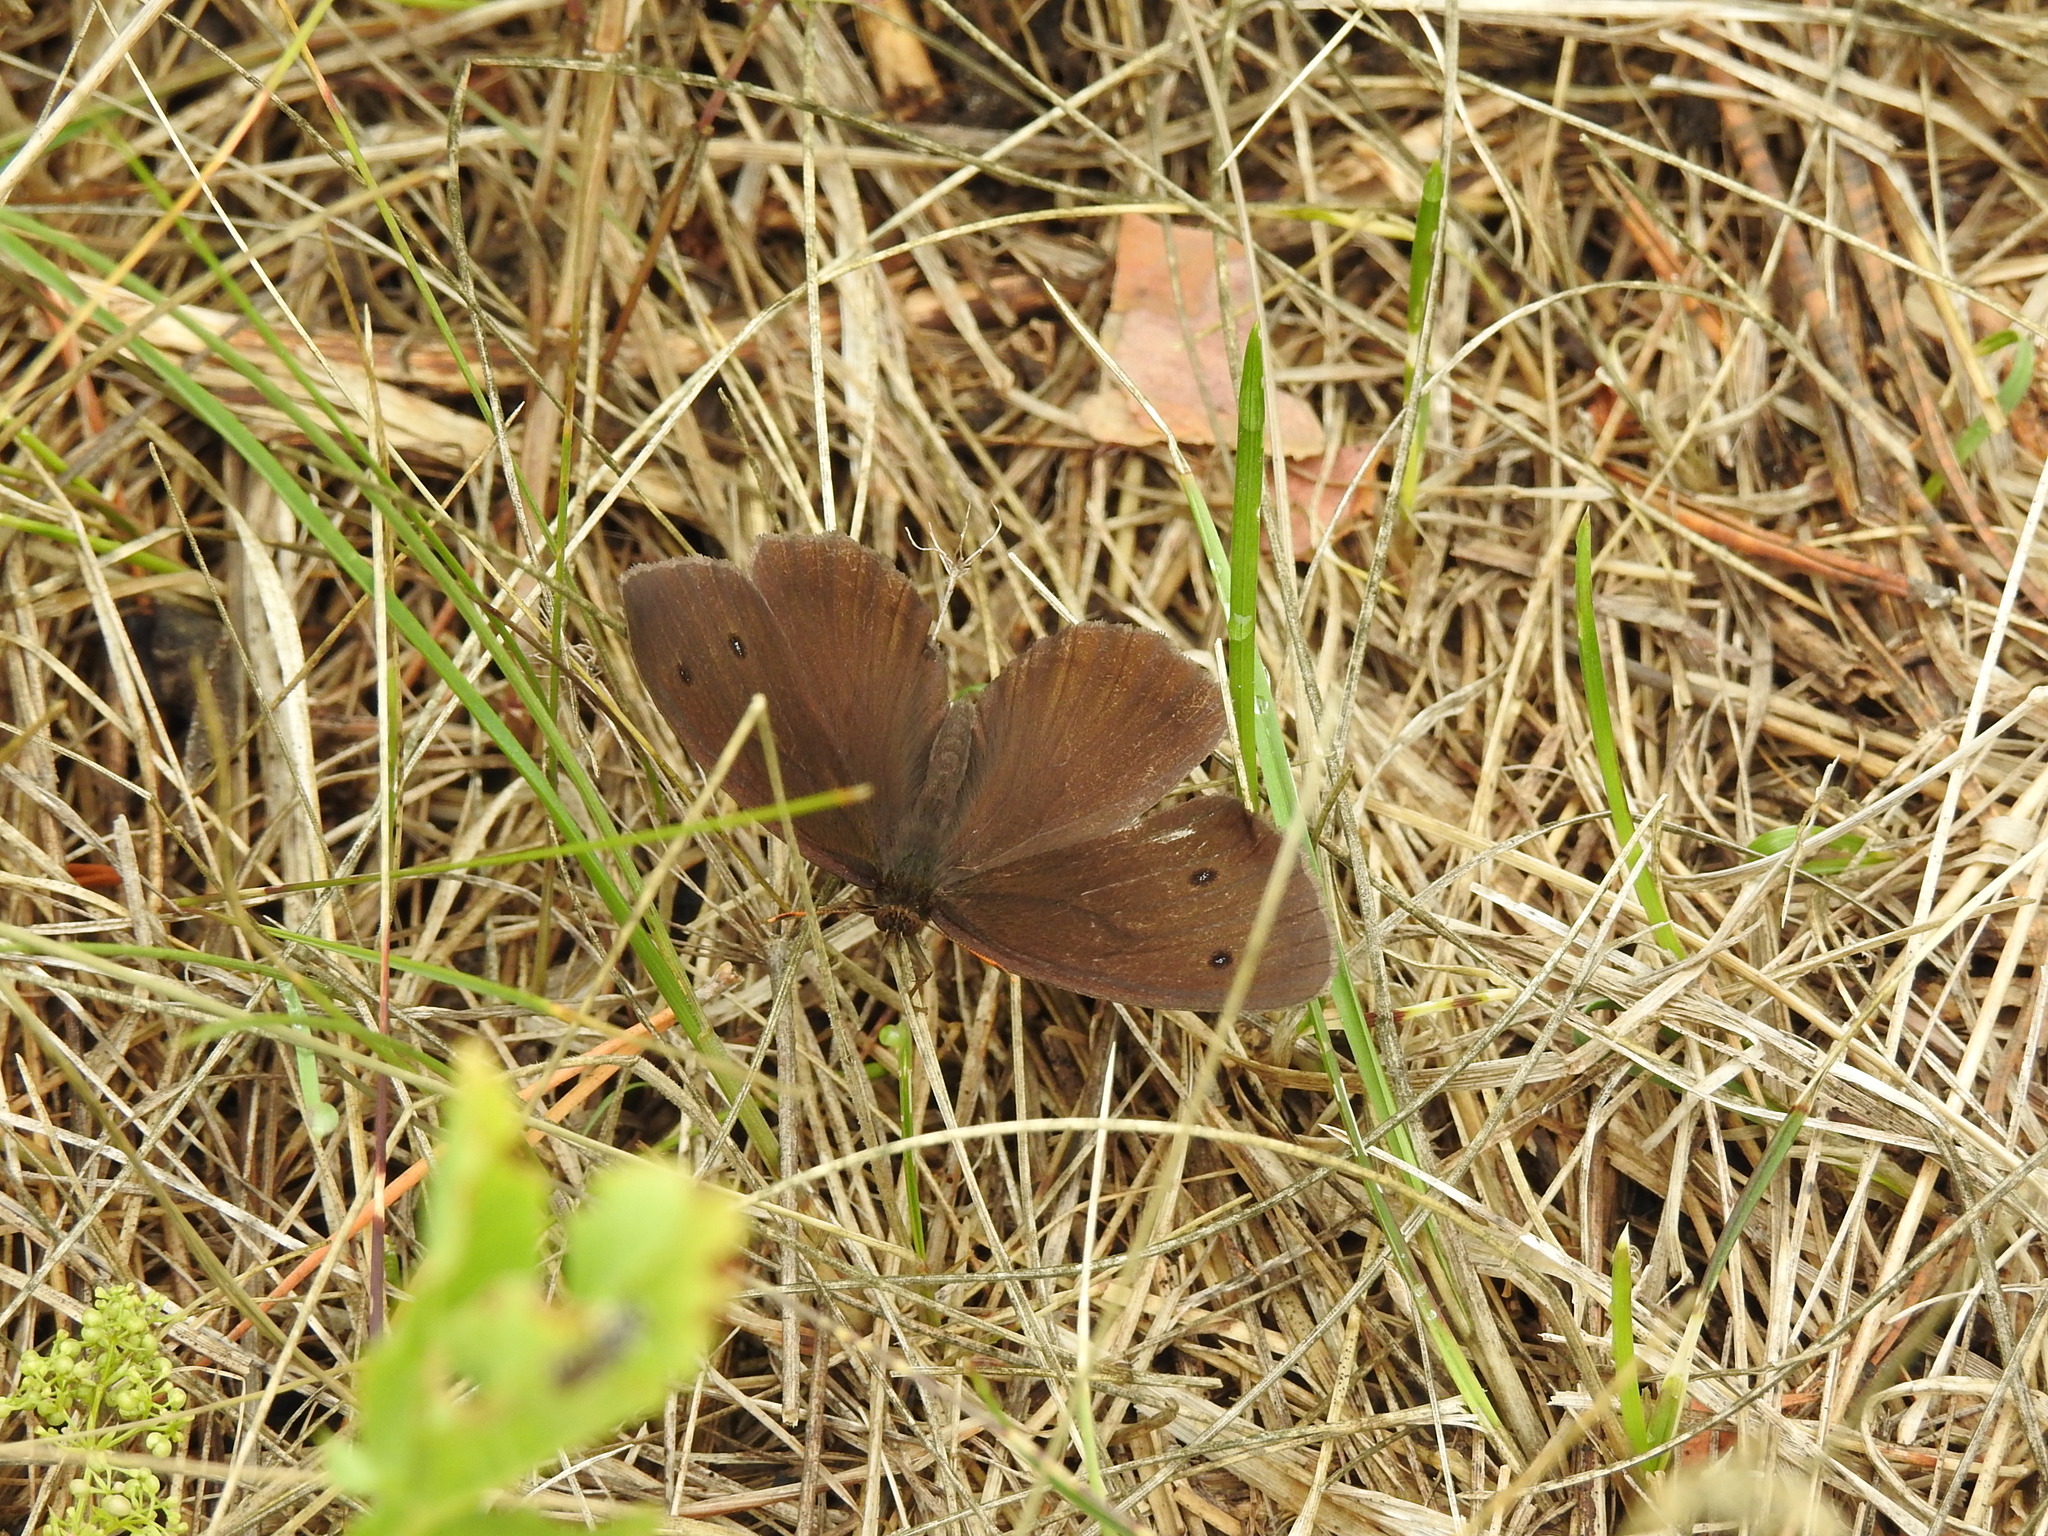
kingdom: Animalia
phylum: Arthropoda
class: Insecta
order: Lepidoptera
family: Nymphalidae
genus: Minois
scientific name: Minois dryas
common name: Dryad
